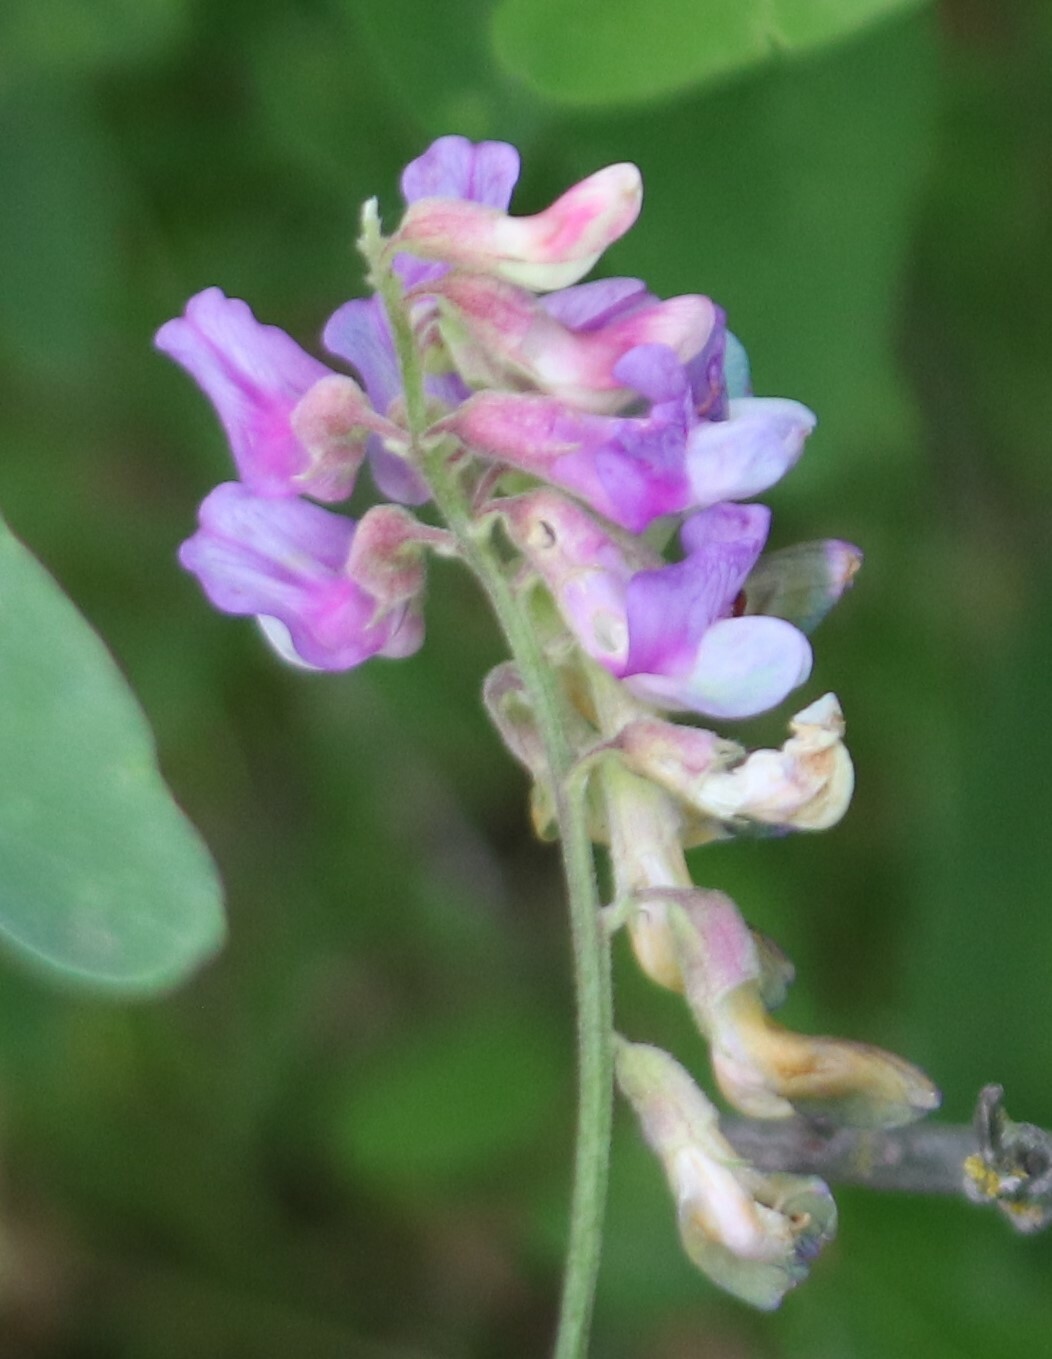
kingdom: Plantae
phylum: Tracheophyta
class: Magnoliopsida
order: Fabales
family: Fabaceae
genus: Lathyrus
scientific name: Lathyrus venosus
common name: Forest-pea
